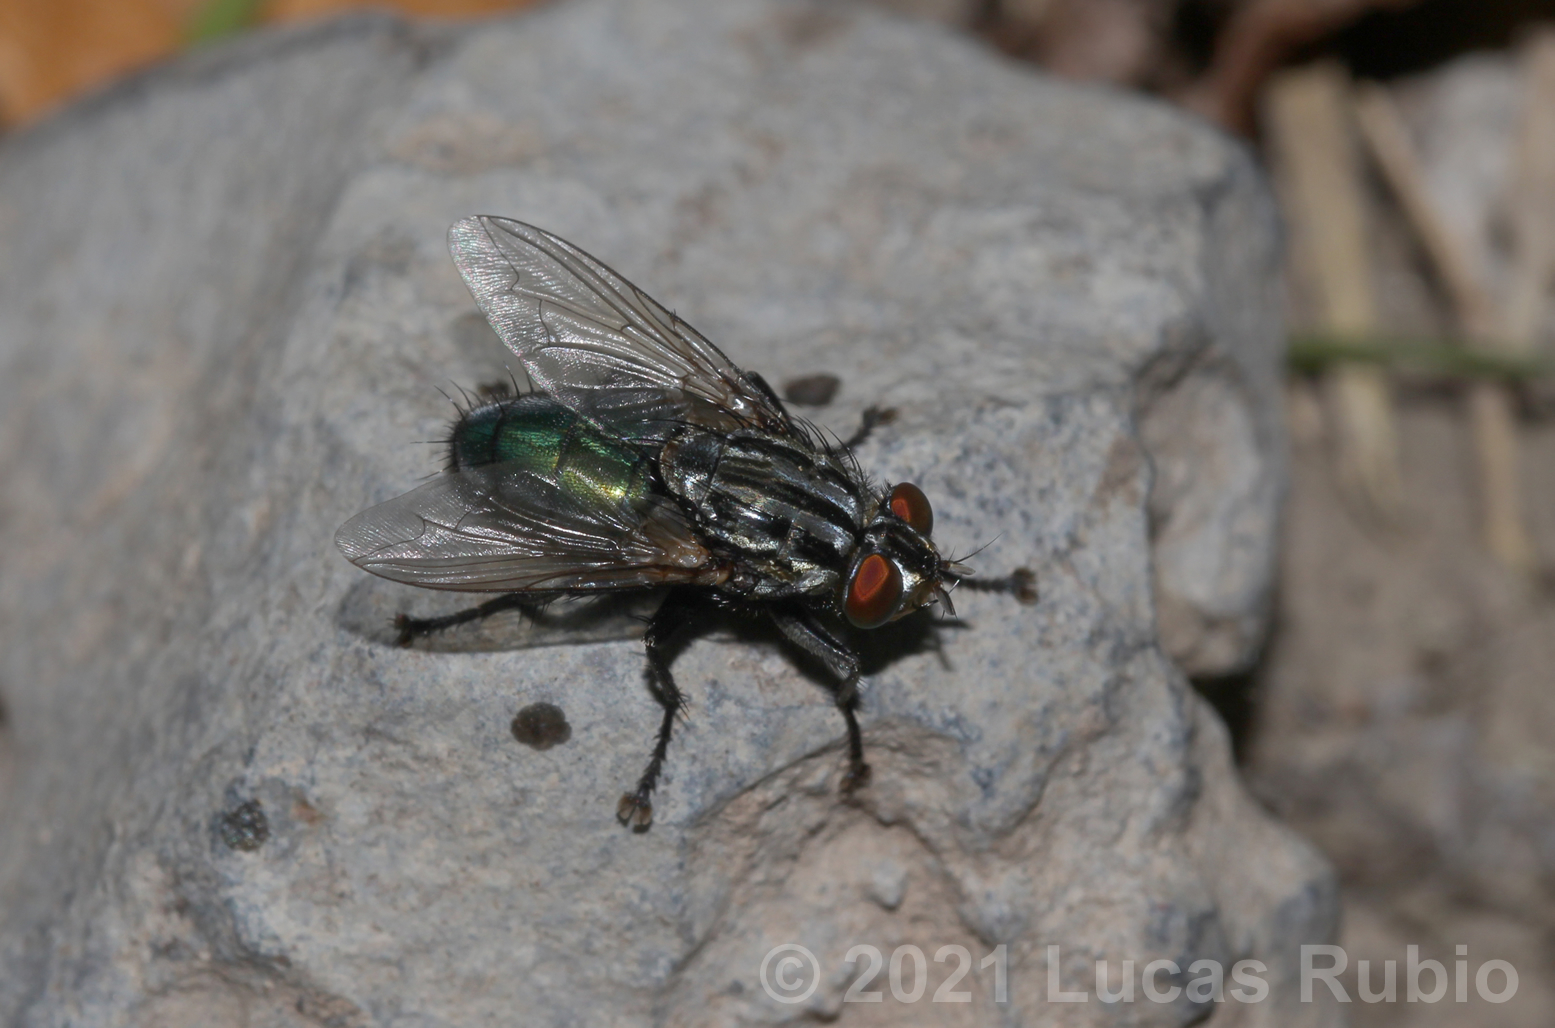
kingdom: Animalia
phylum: Arthropoda
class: Insecta
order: Diptera
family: Calliphoridae
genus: Sarconesia
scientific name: Sarconesia chlorogaster
